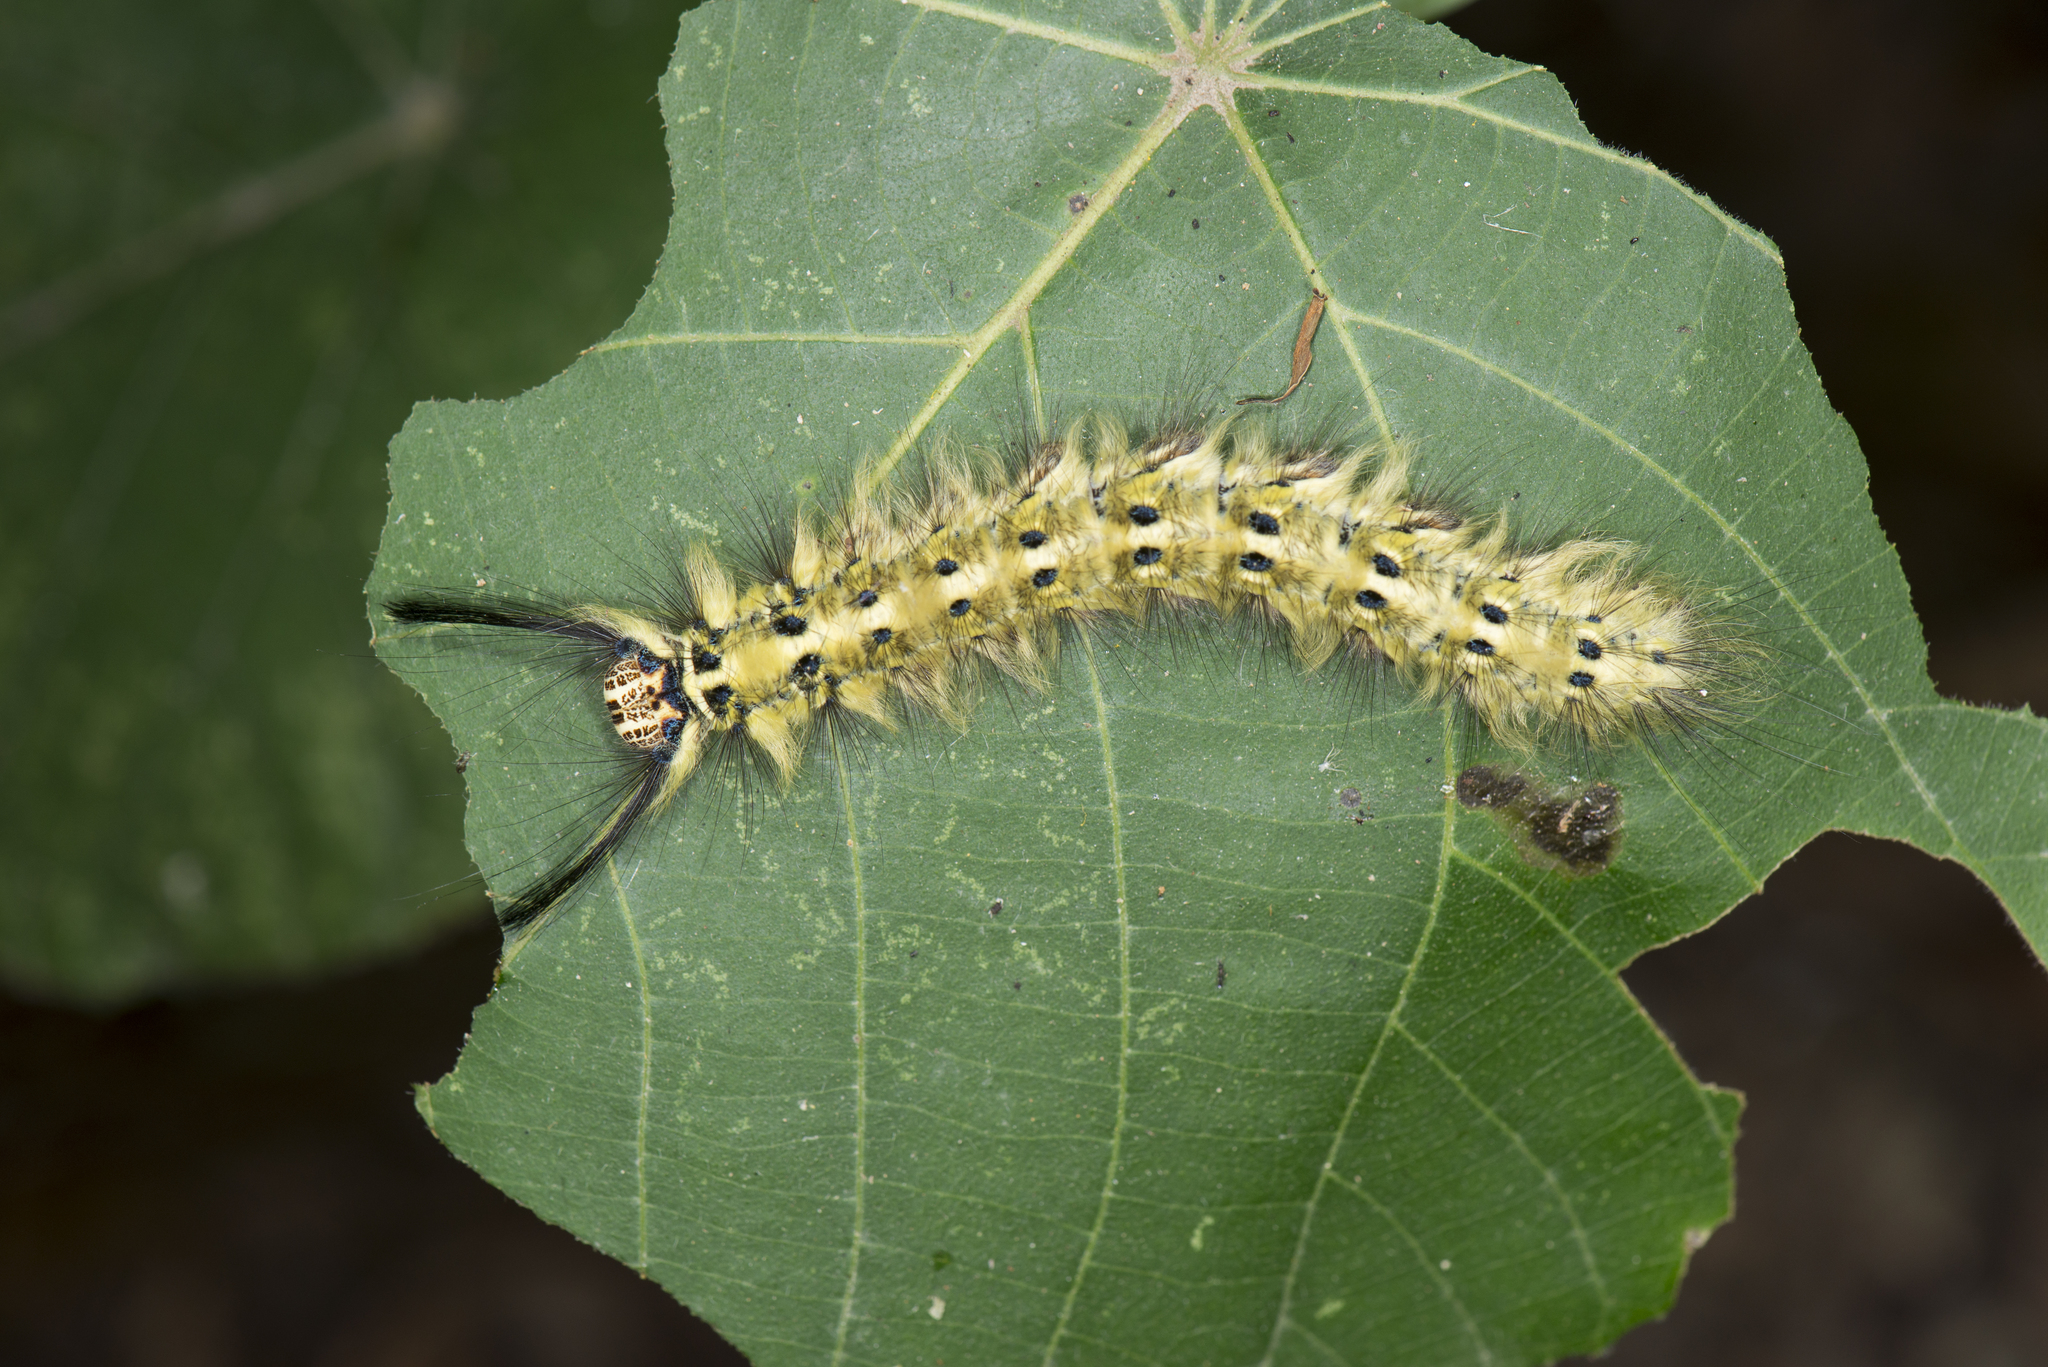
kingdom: Animalia
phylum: Arthropoda
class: Insecta
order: Lepidoptera
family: Lasiocampidae
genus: Trabala
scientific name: Trabala vishnou
